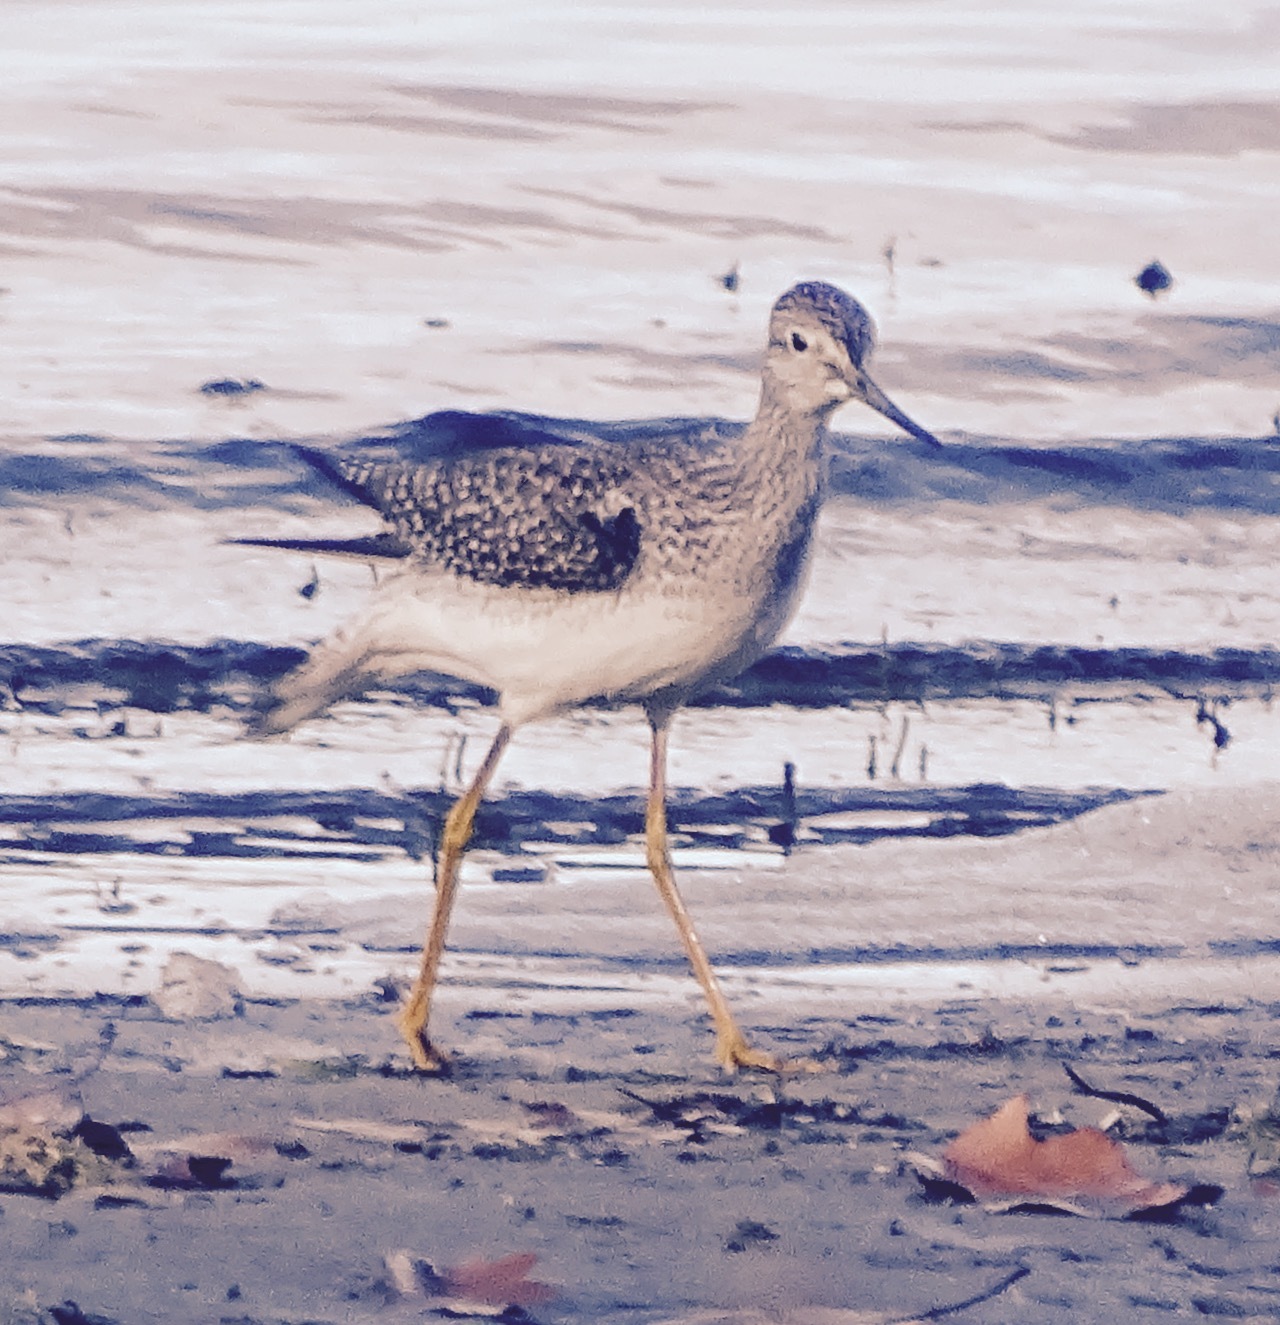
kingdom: Animalia
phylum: Chordata
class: Aves
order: Charadriiformes
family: Scolopacidae
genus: Tringa
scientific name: Tringa
